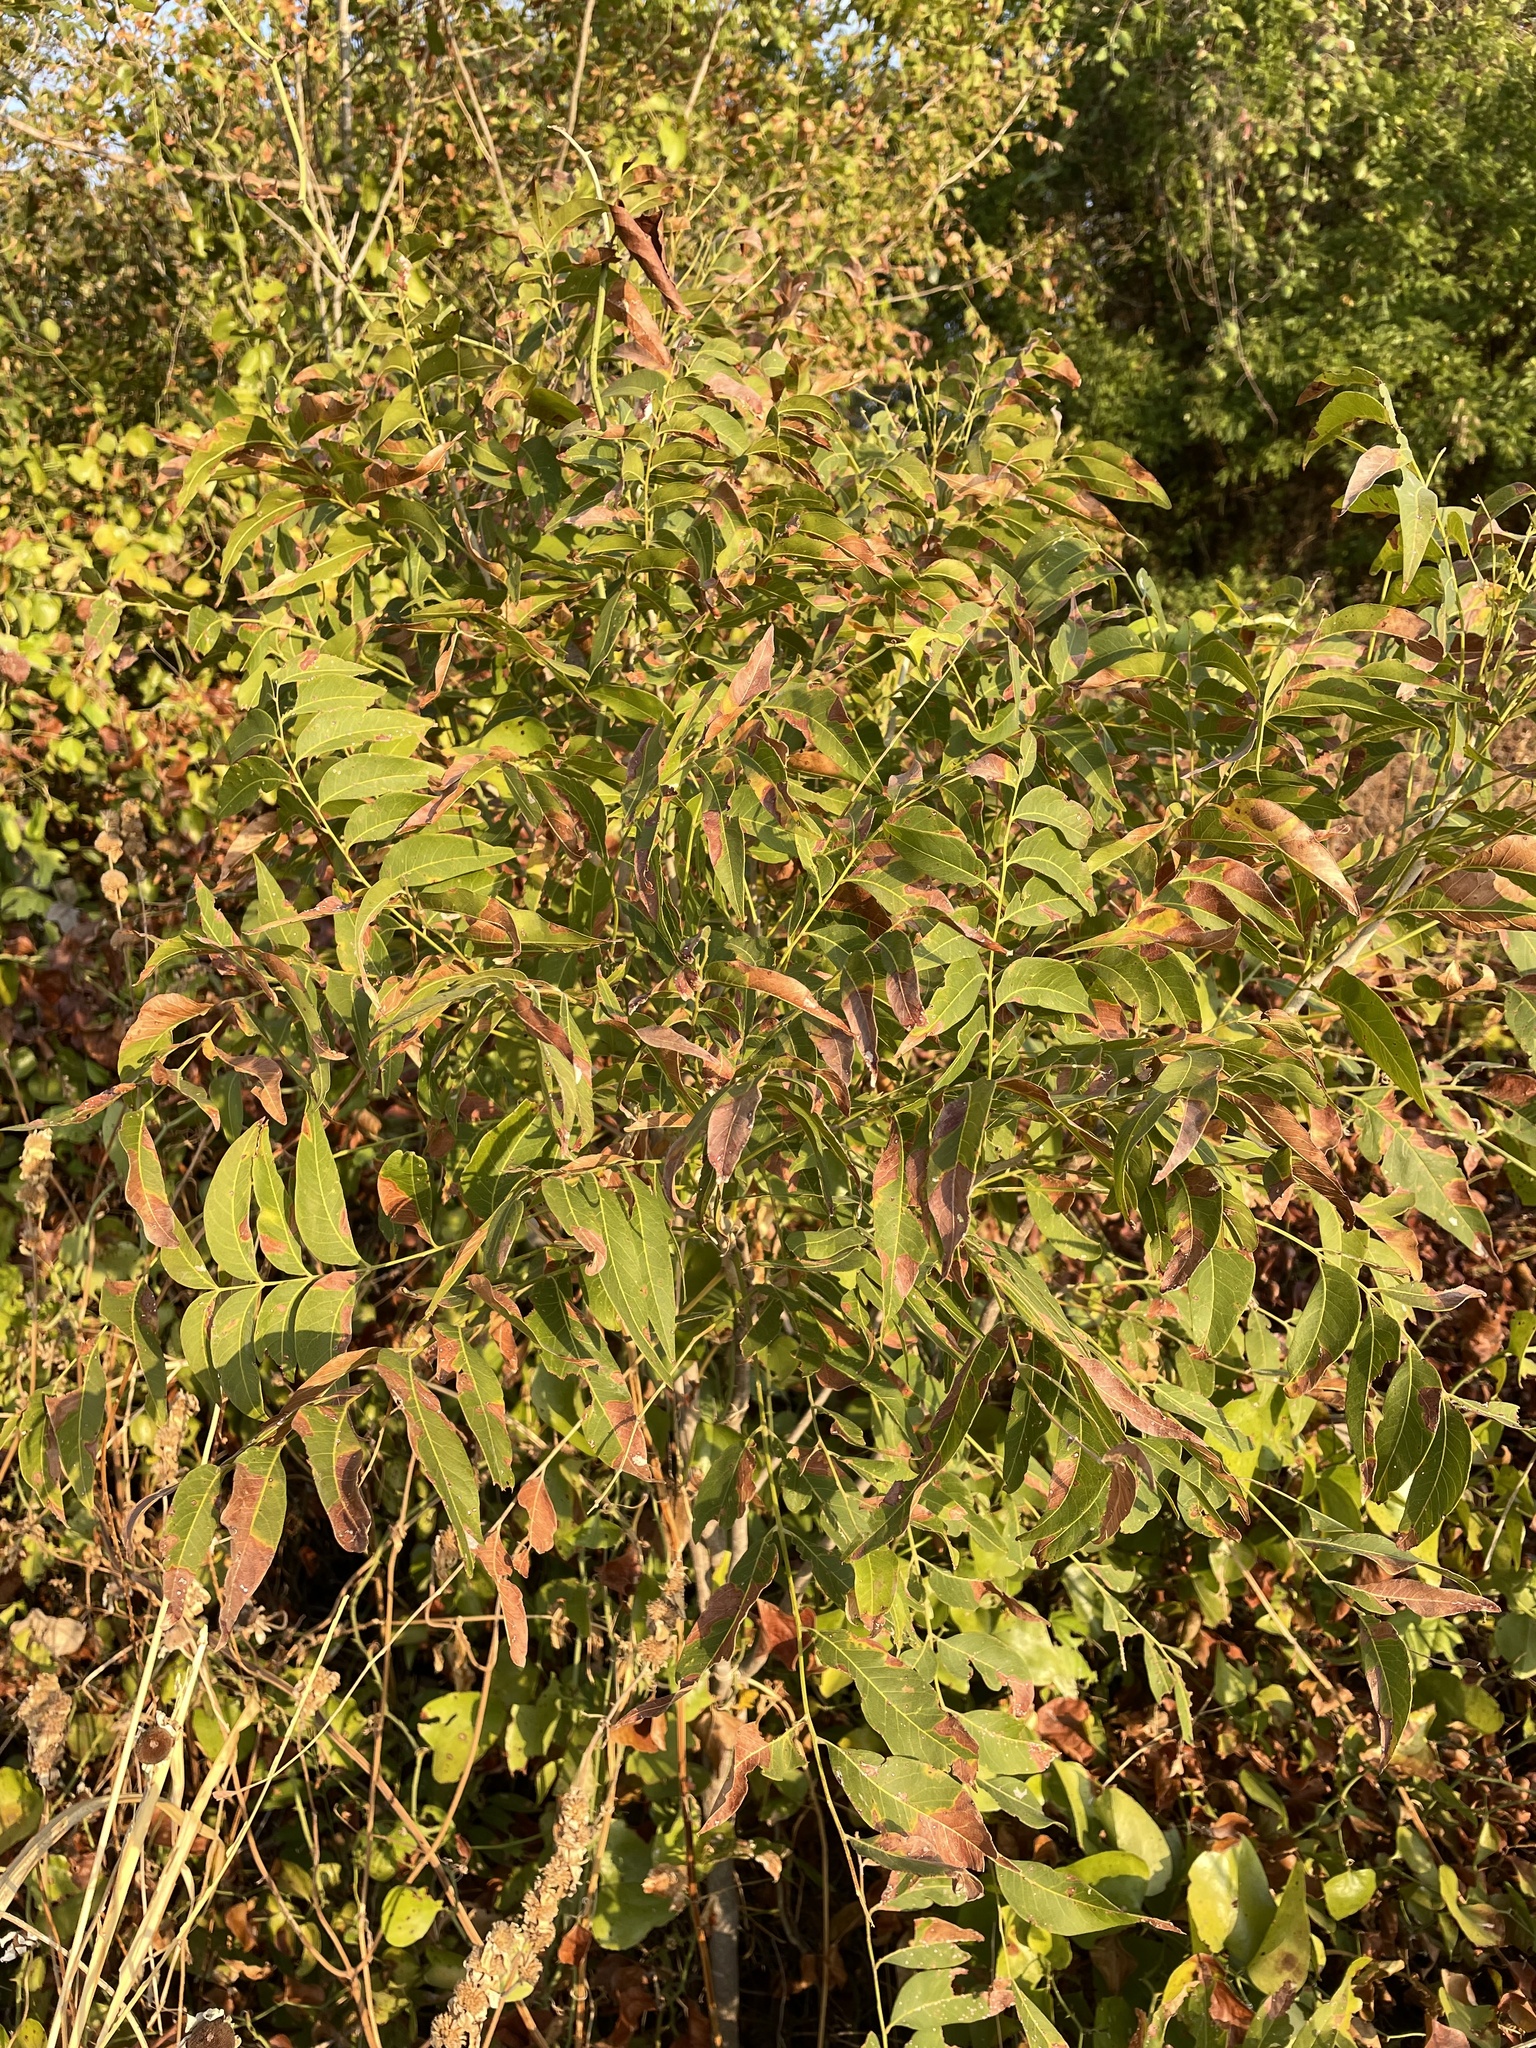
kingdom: Plantae
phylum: Tracheophyta
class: Magnoliopsida
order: Sapindales
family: Sapindaceae
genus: Sapindus
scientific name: Sapindus drummondii
